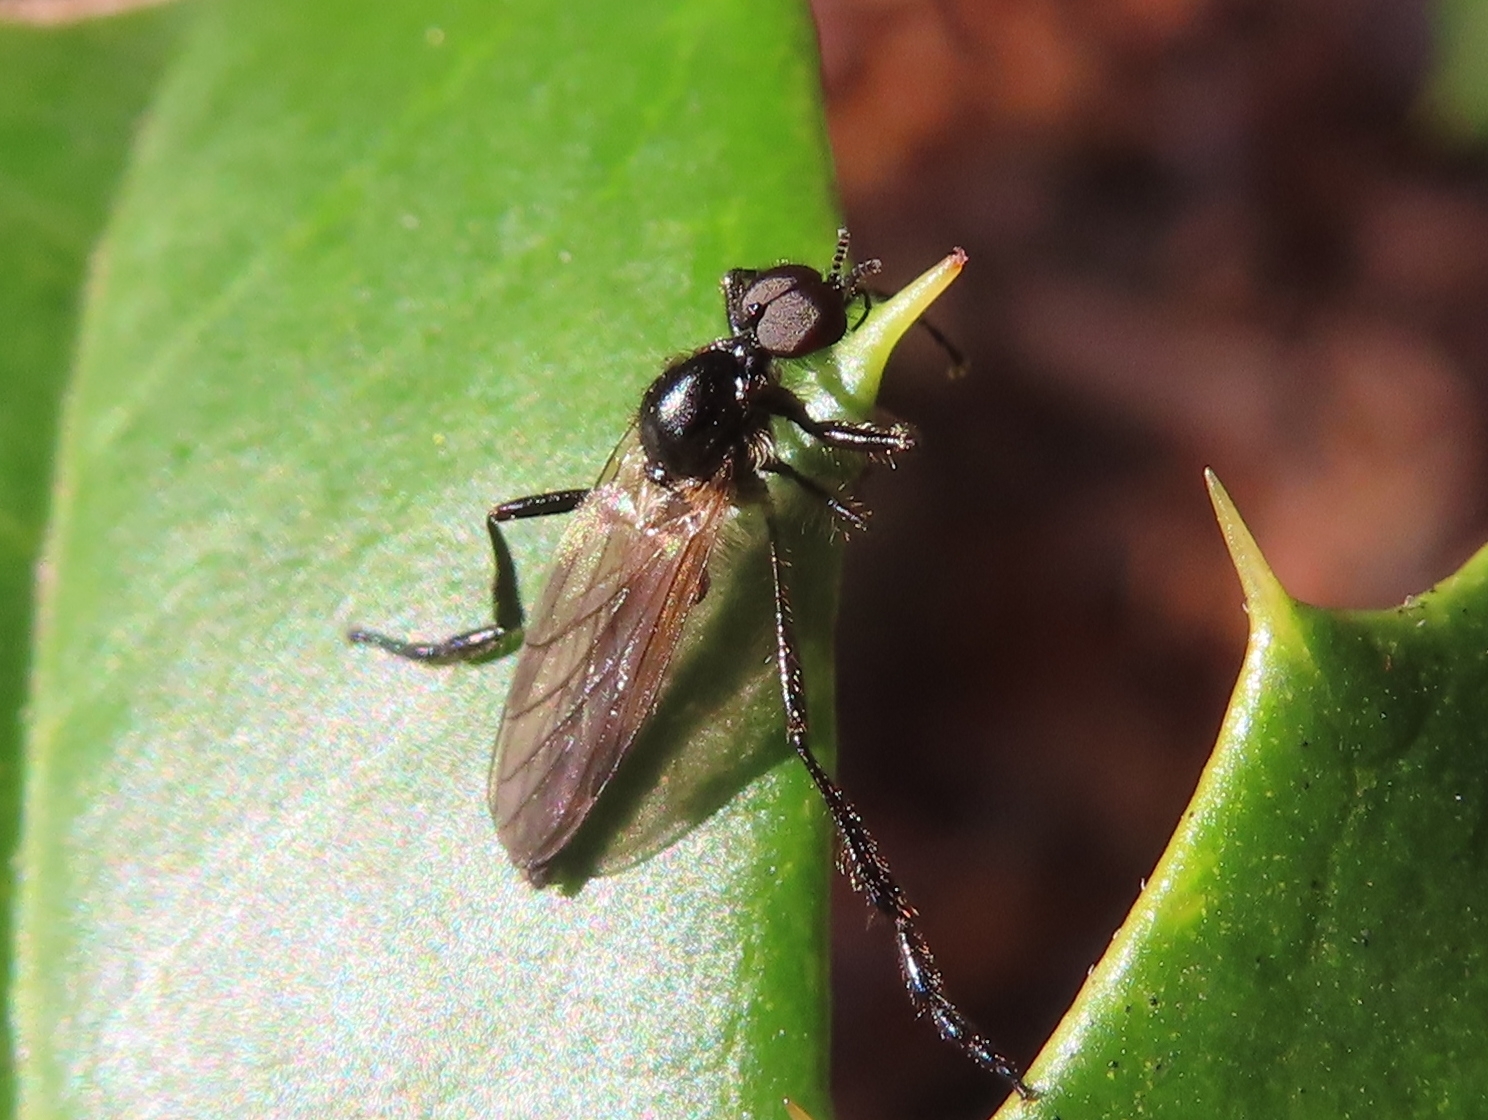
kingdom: Animalia
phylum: Arthropoda
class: Insecta
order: Diptera
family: Bibionidae
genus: Bibio
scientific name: Bibio
